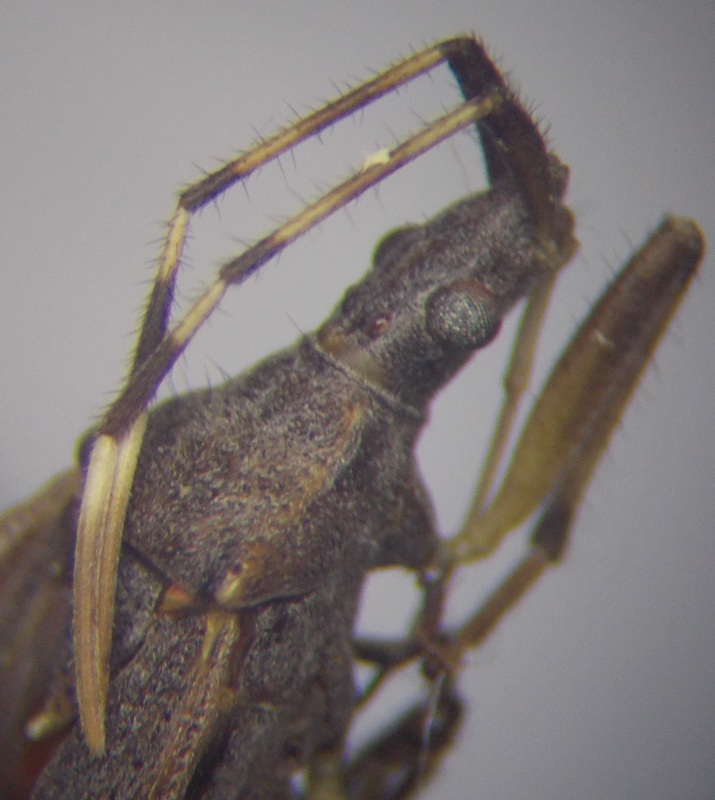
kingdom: Animalia
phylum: Arthropoda
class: Insecta
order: Hemiptera
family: Stenocephalidae
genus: Dicranocephalus
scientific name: Dicranocephalus setulosus
